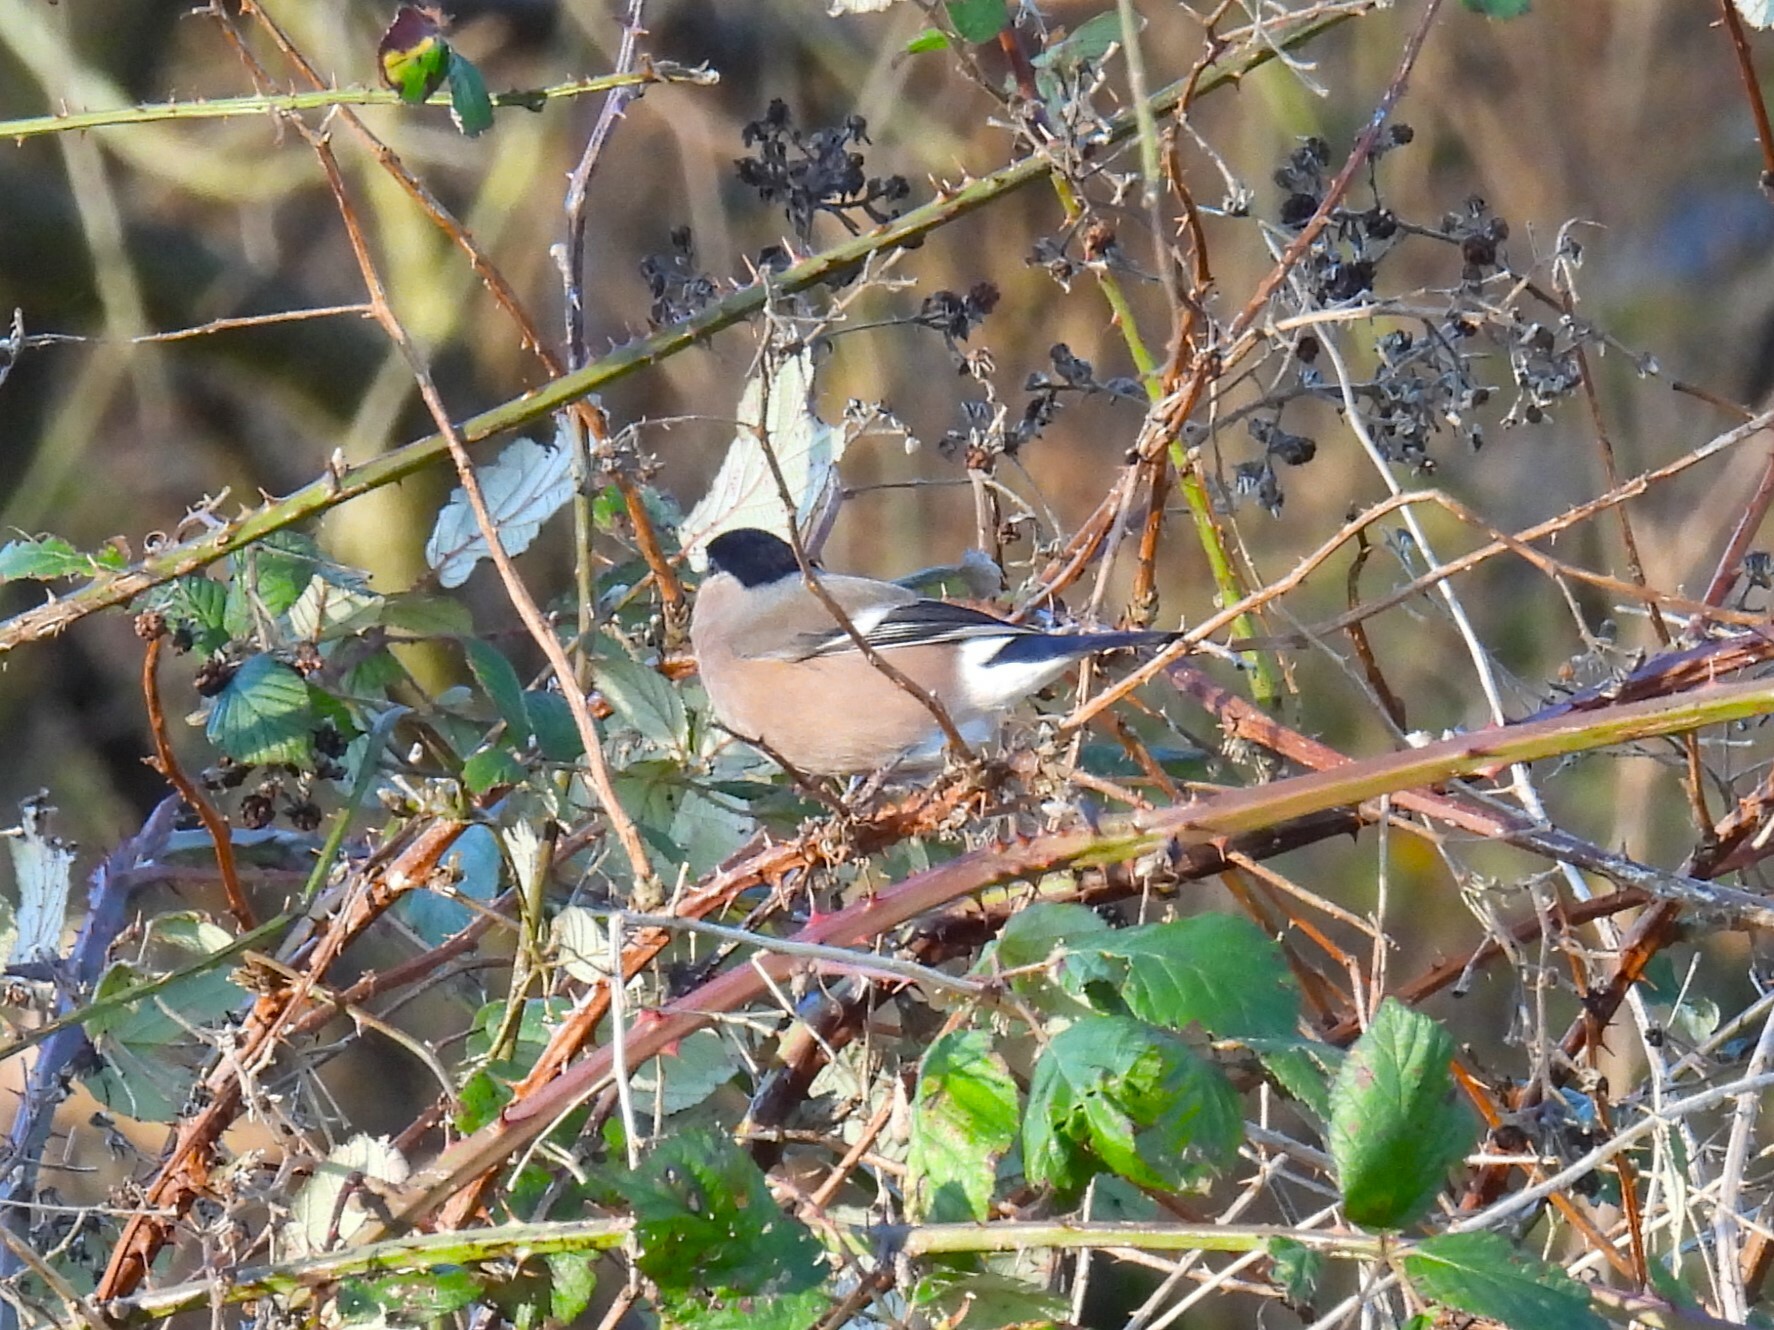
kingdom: Animalia
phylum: Chordata
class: Aves
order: Passeriformes
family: Fringillidae
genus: Pyrrhula
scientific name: Pyrrhula pyrrhula
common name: Eurasian bullfinch
